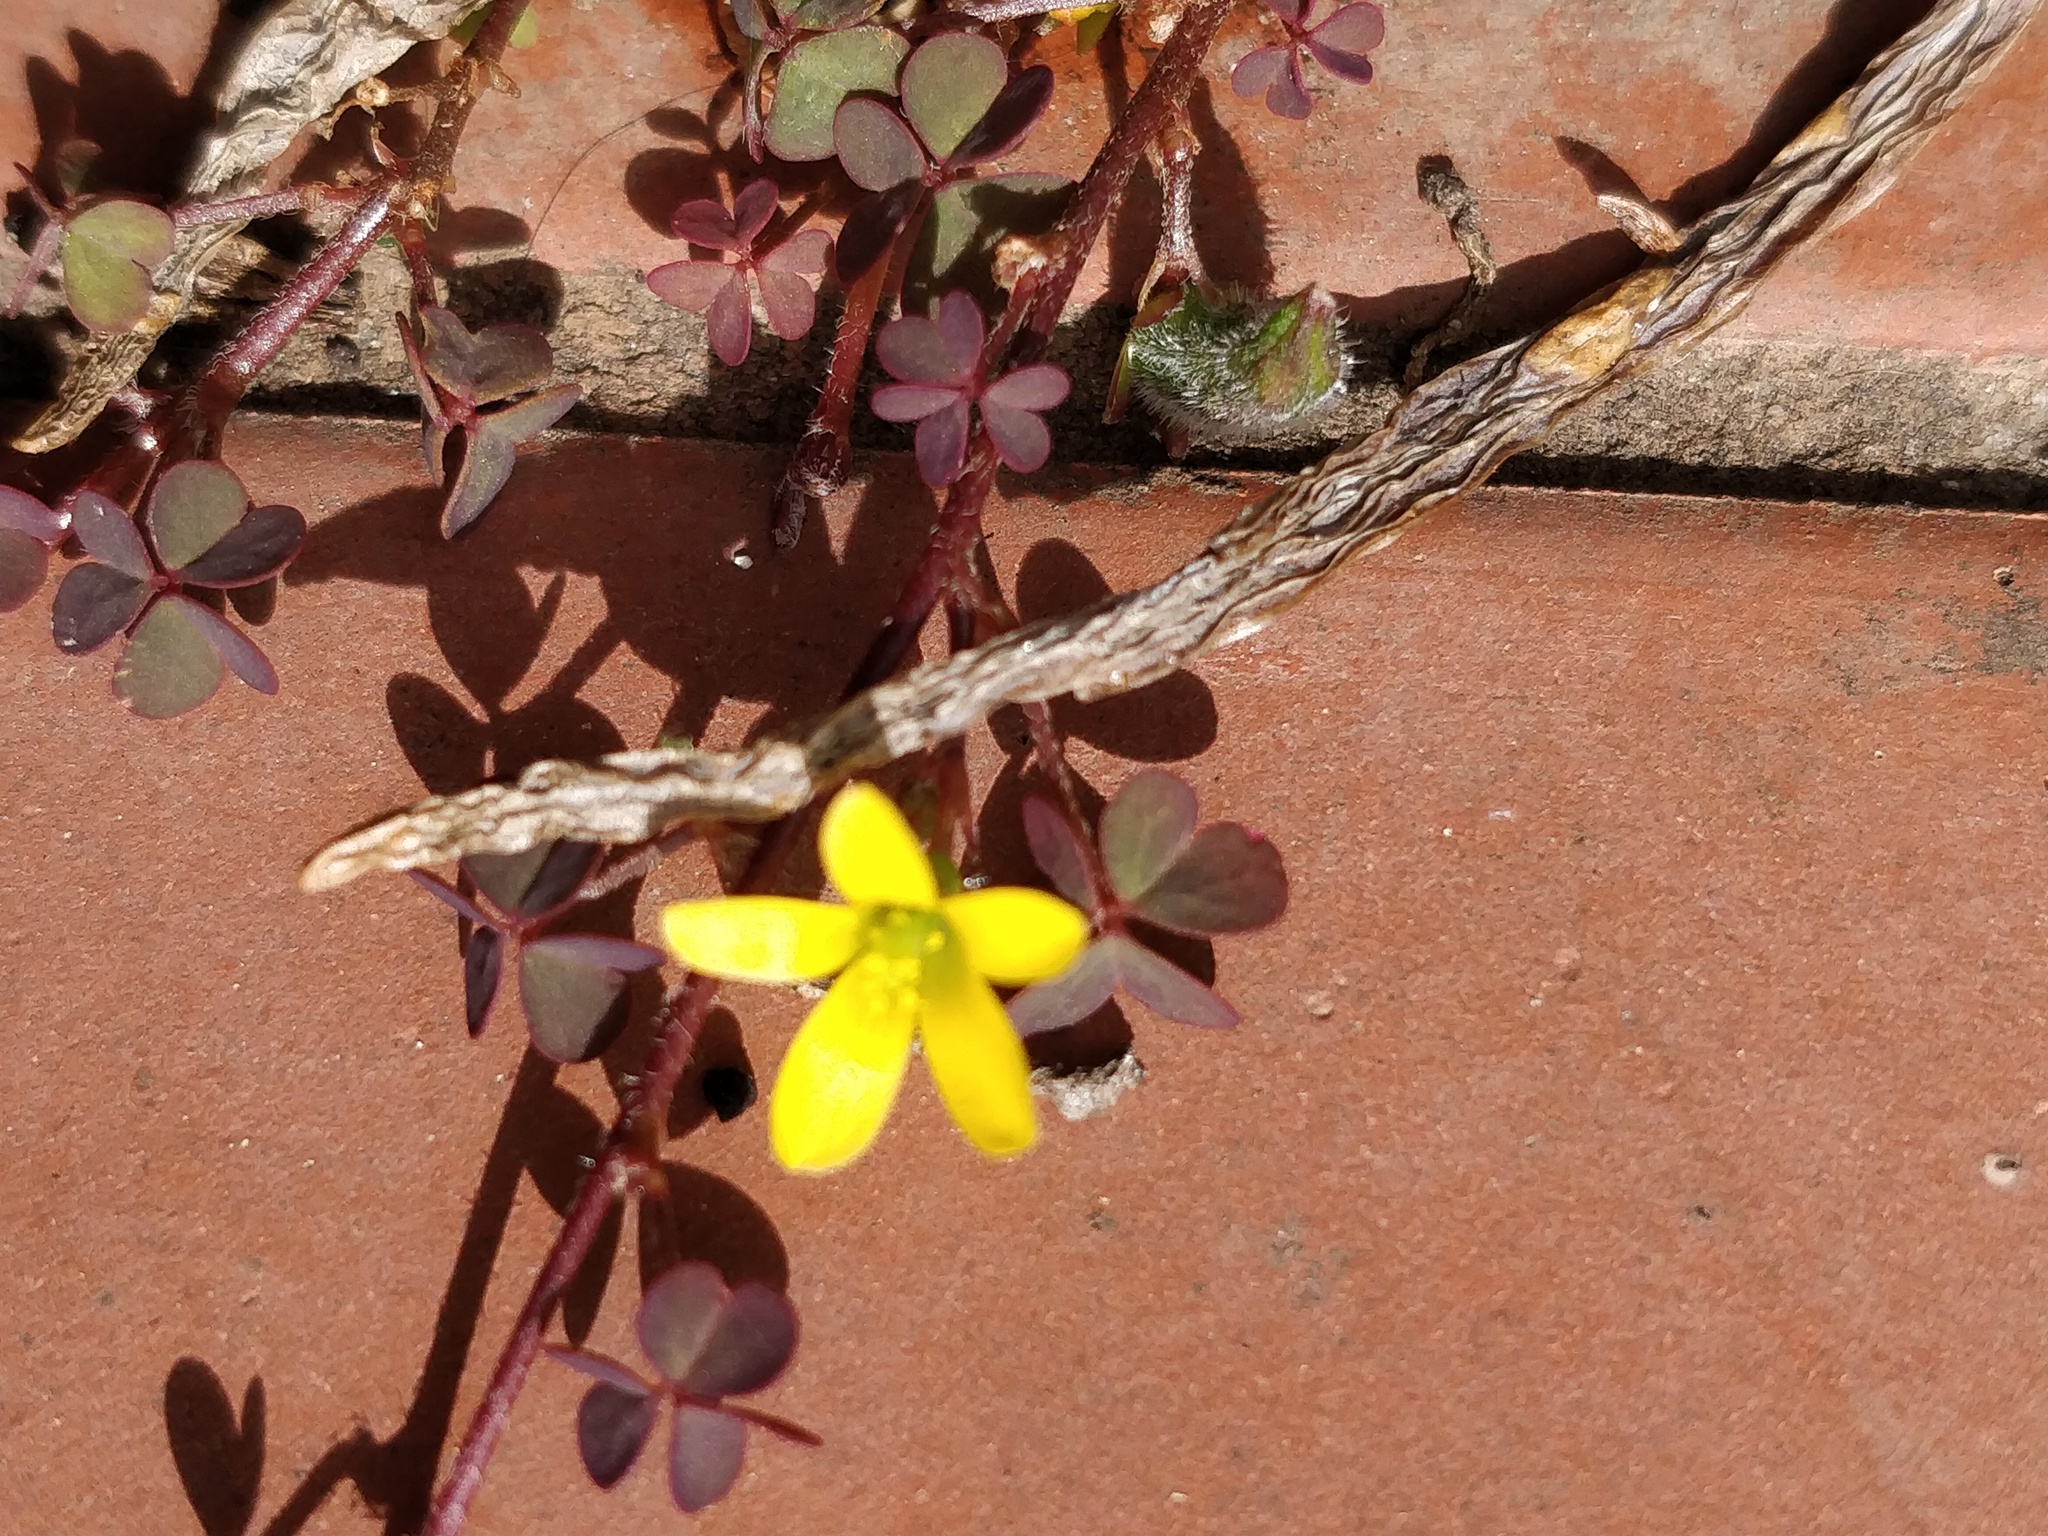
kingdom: Plantae
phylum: Tracheophyta
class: Magnoliopsida
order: Oxalidales
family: Oxalidaceae
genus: Oxalis
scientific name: Oxalis corniculata
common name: Procumbent yellow-sorrel
